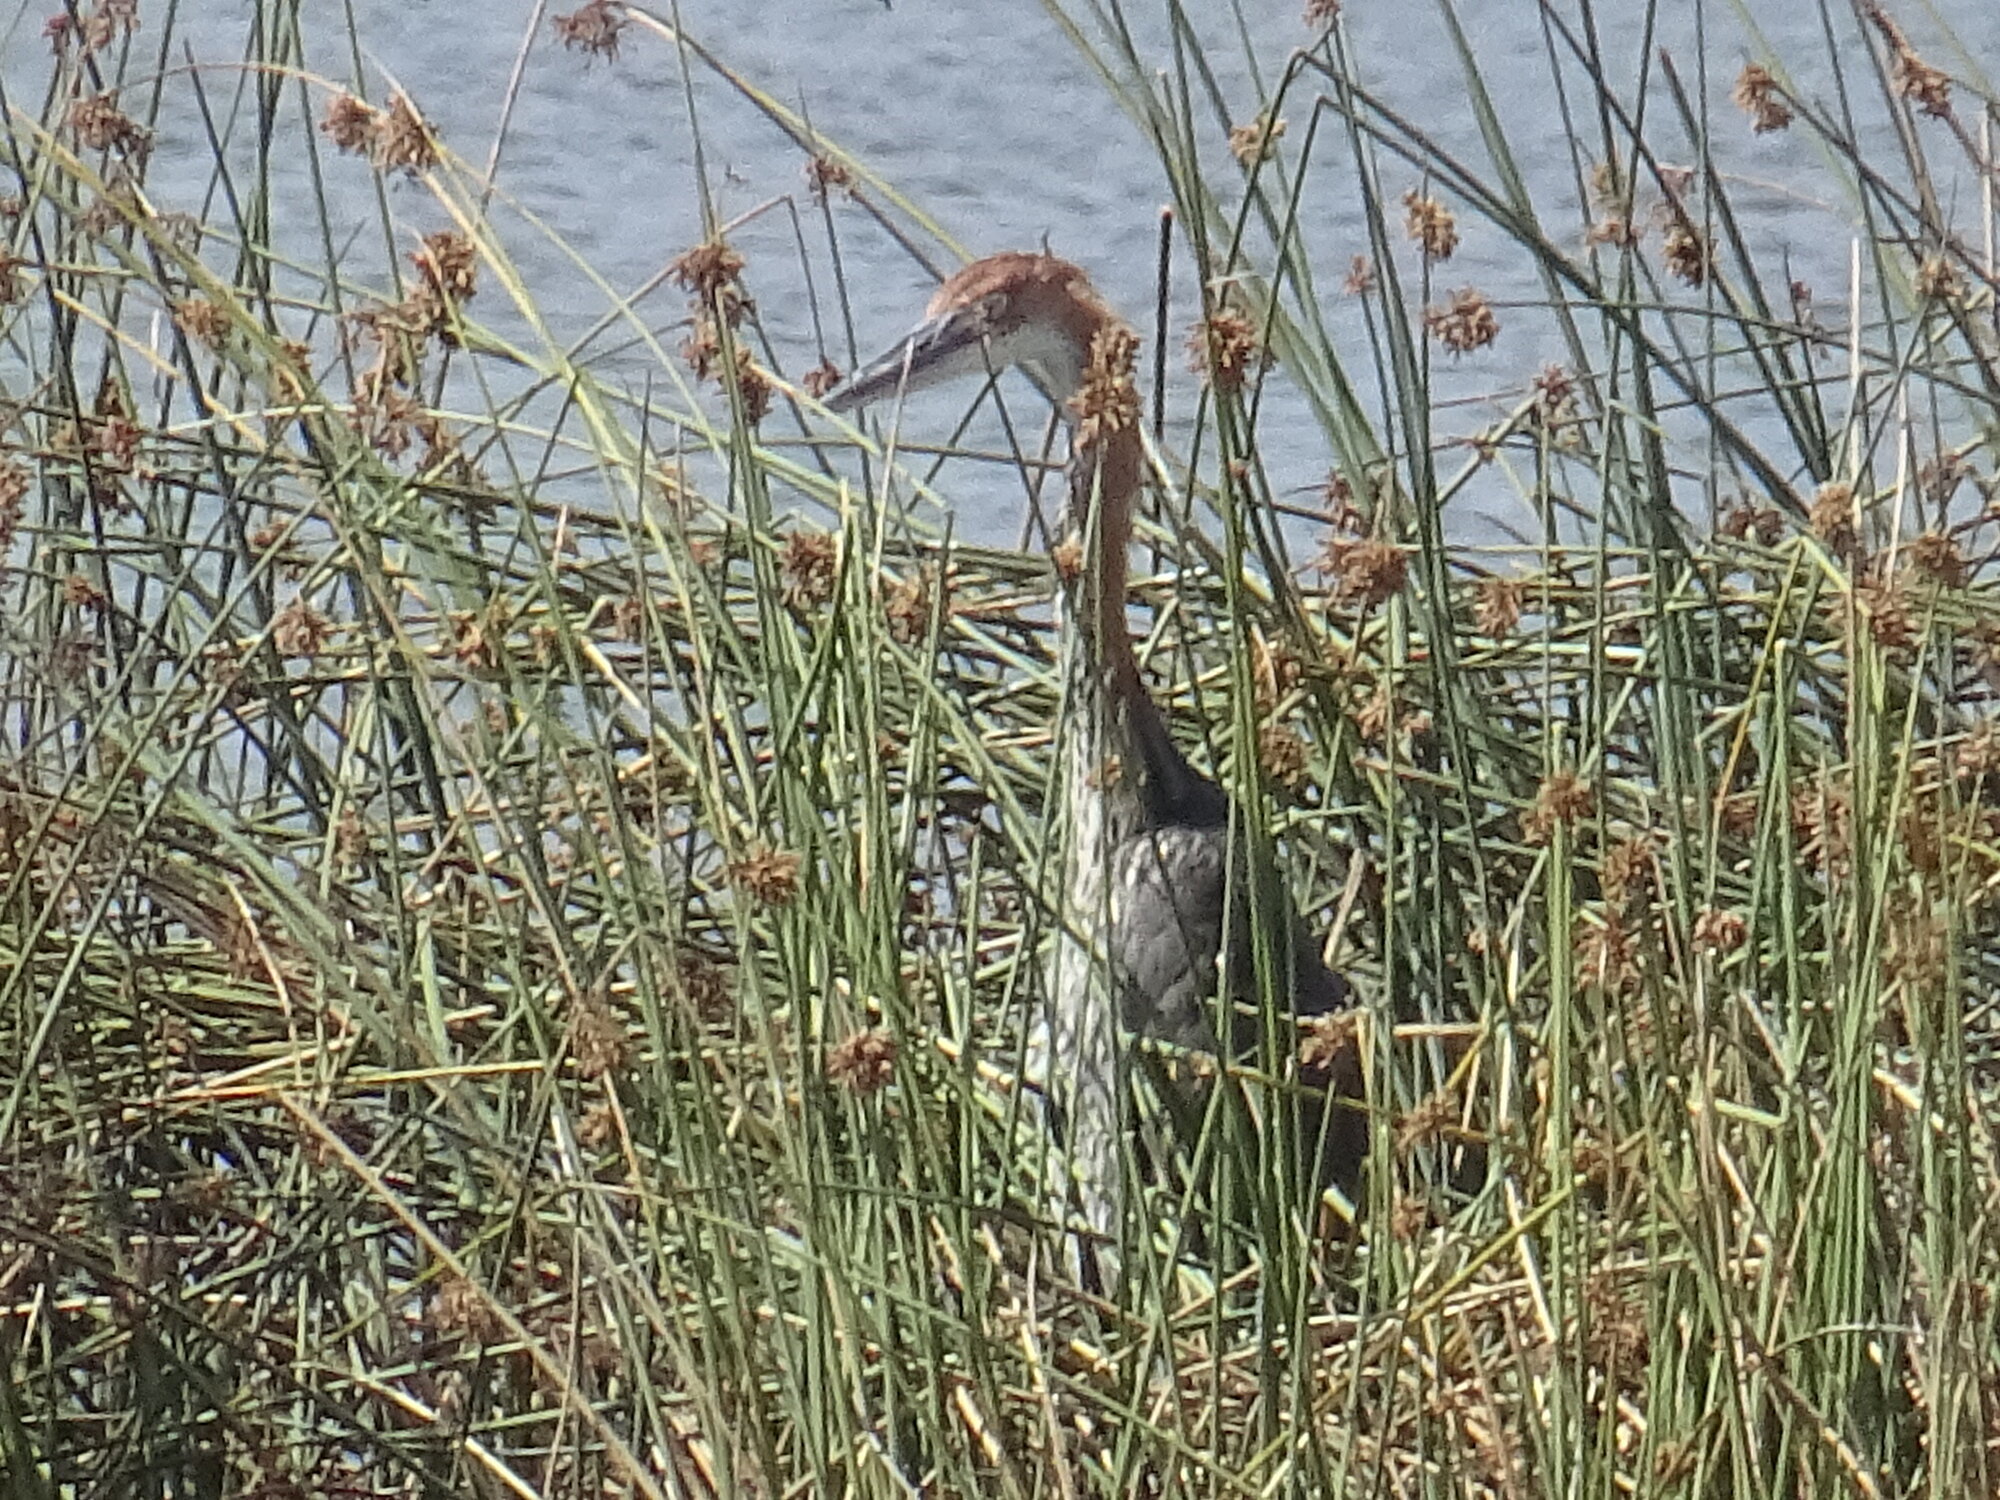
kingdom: Animalia
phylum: Chordata
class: Aves
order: Pelecaniformes
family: Ardeidae
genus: Ardea
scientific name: Ardea goliath
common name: Goliath heron
